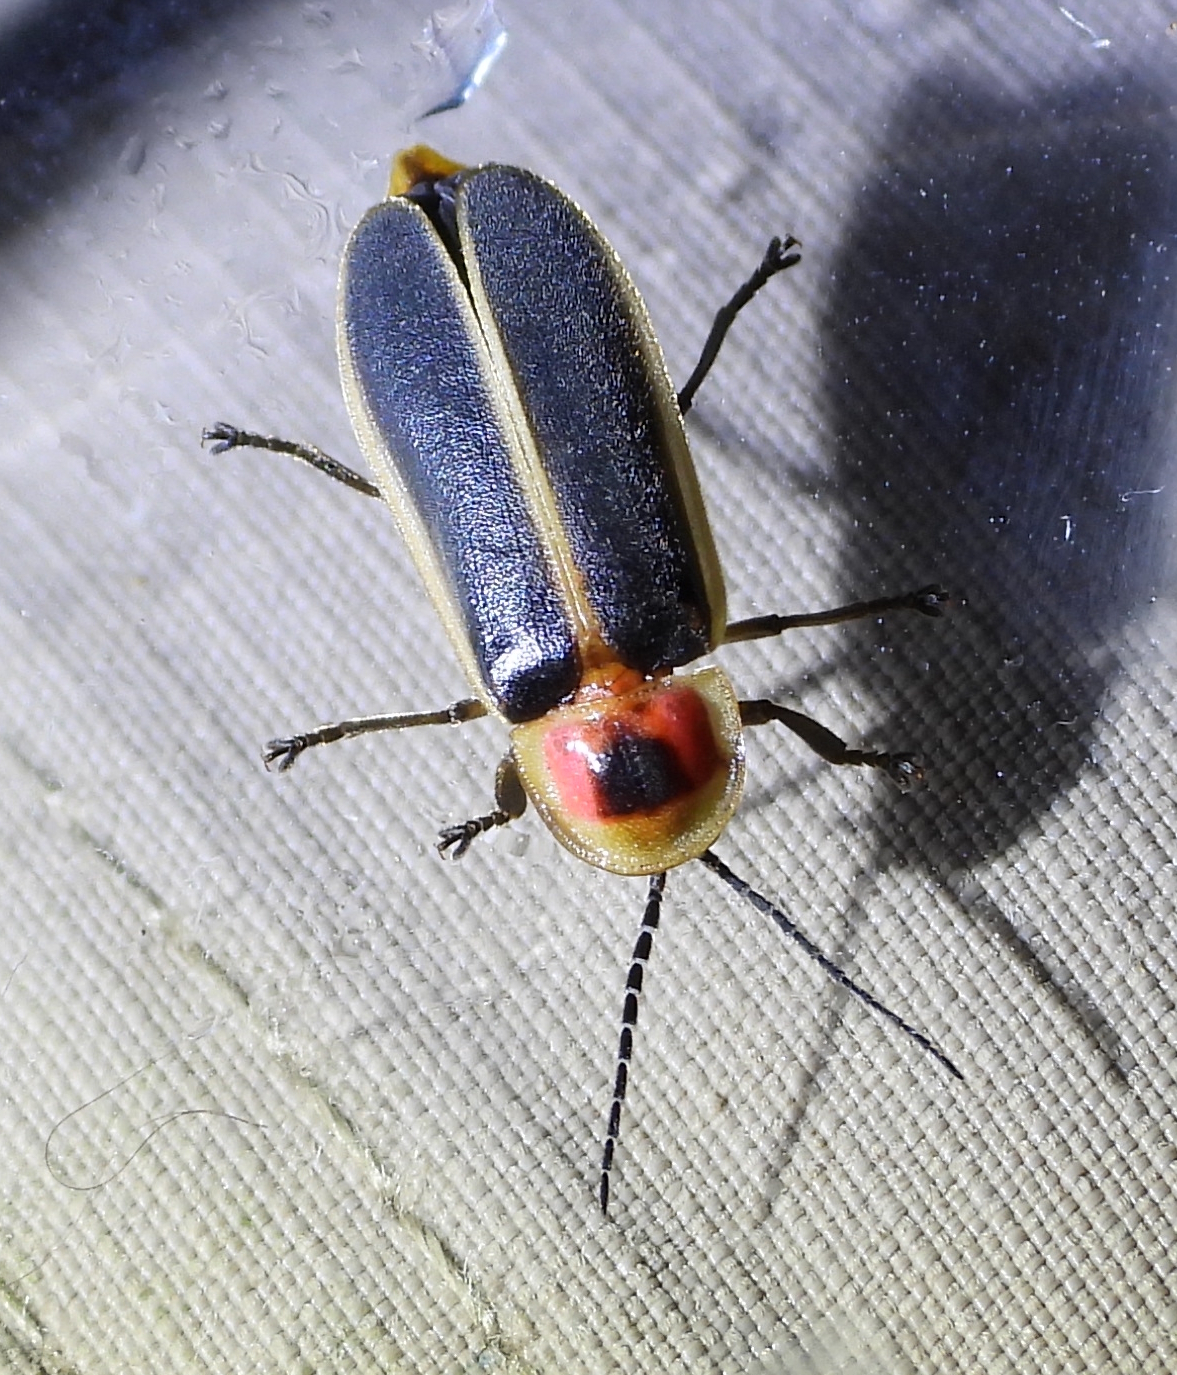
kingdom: Animalia
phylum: Arthropoda
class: Insecta
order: Coleoptera
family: Lampyridae
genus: Photinus
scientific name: Photinus pyralis
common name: Big dipper firefly
